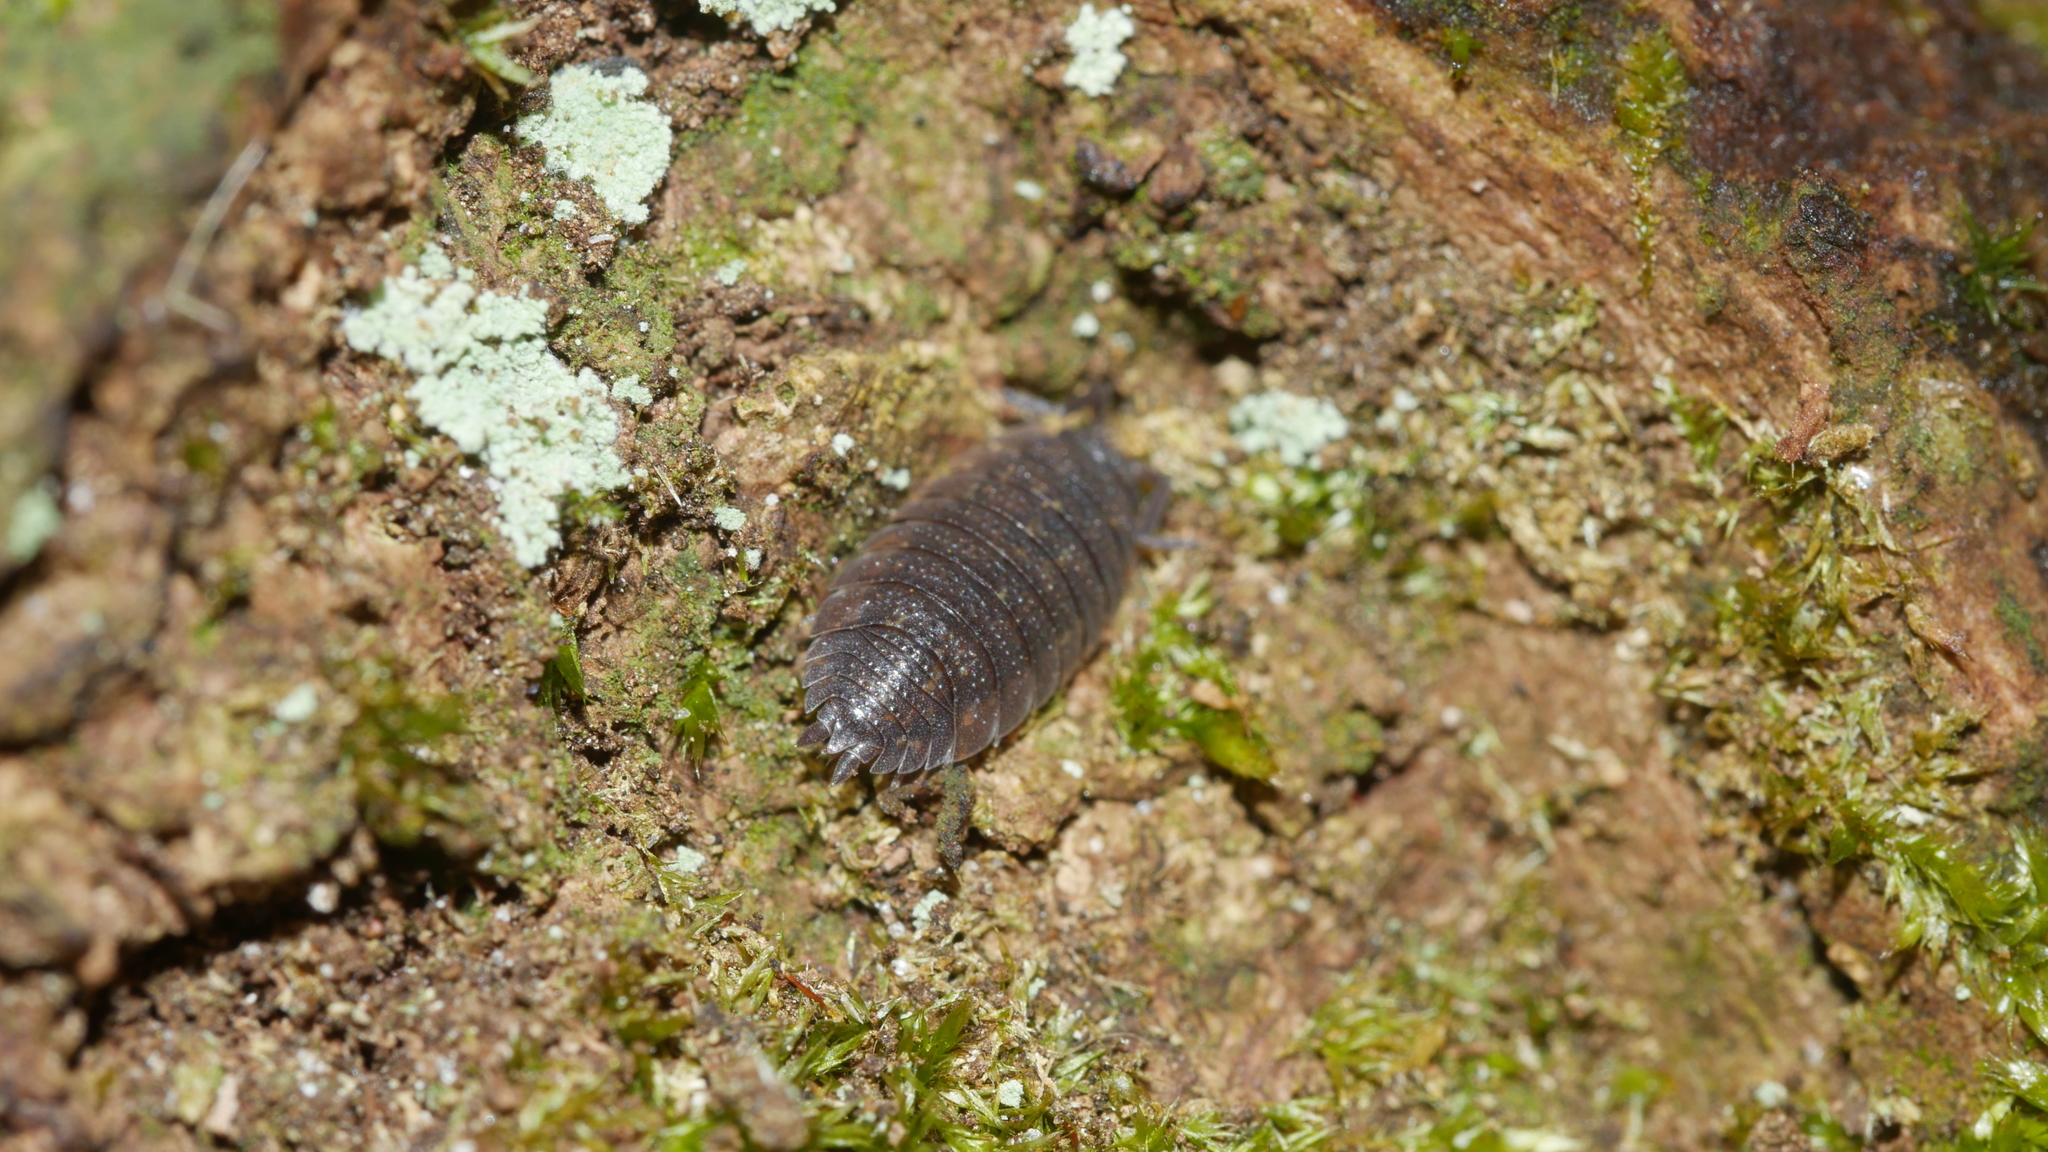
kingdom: Animalia
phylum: Arthropoda
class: Malacostraca
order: Isopoda
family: Porcellionidae
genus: Porcellio
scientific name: Porcellio scaber
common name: Common rough woodlouse
